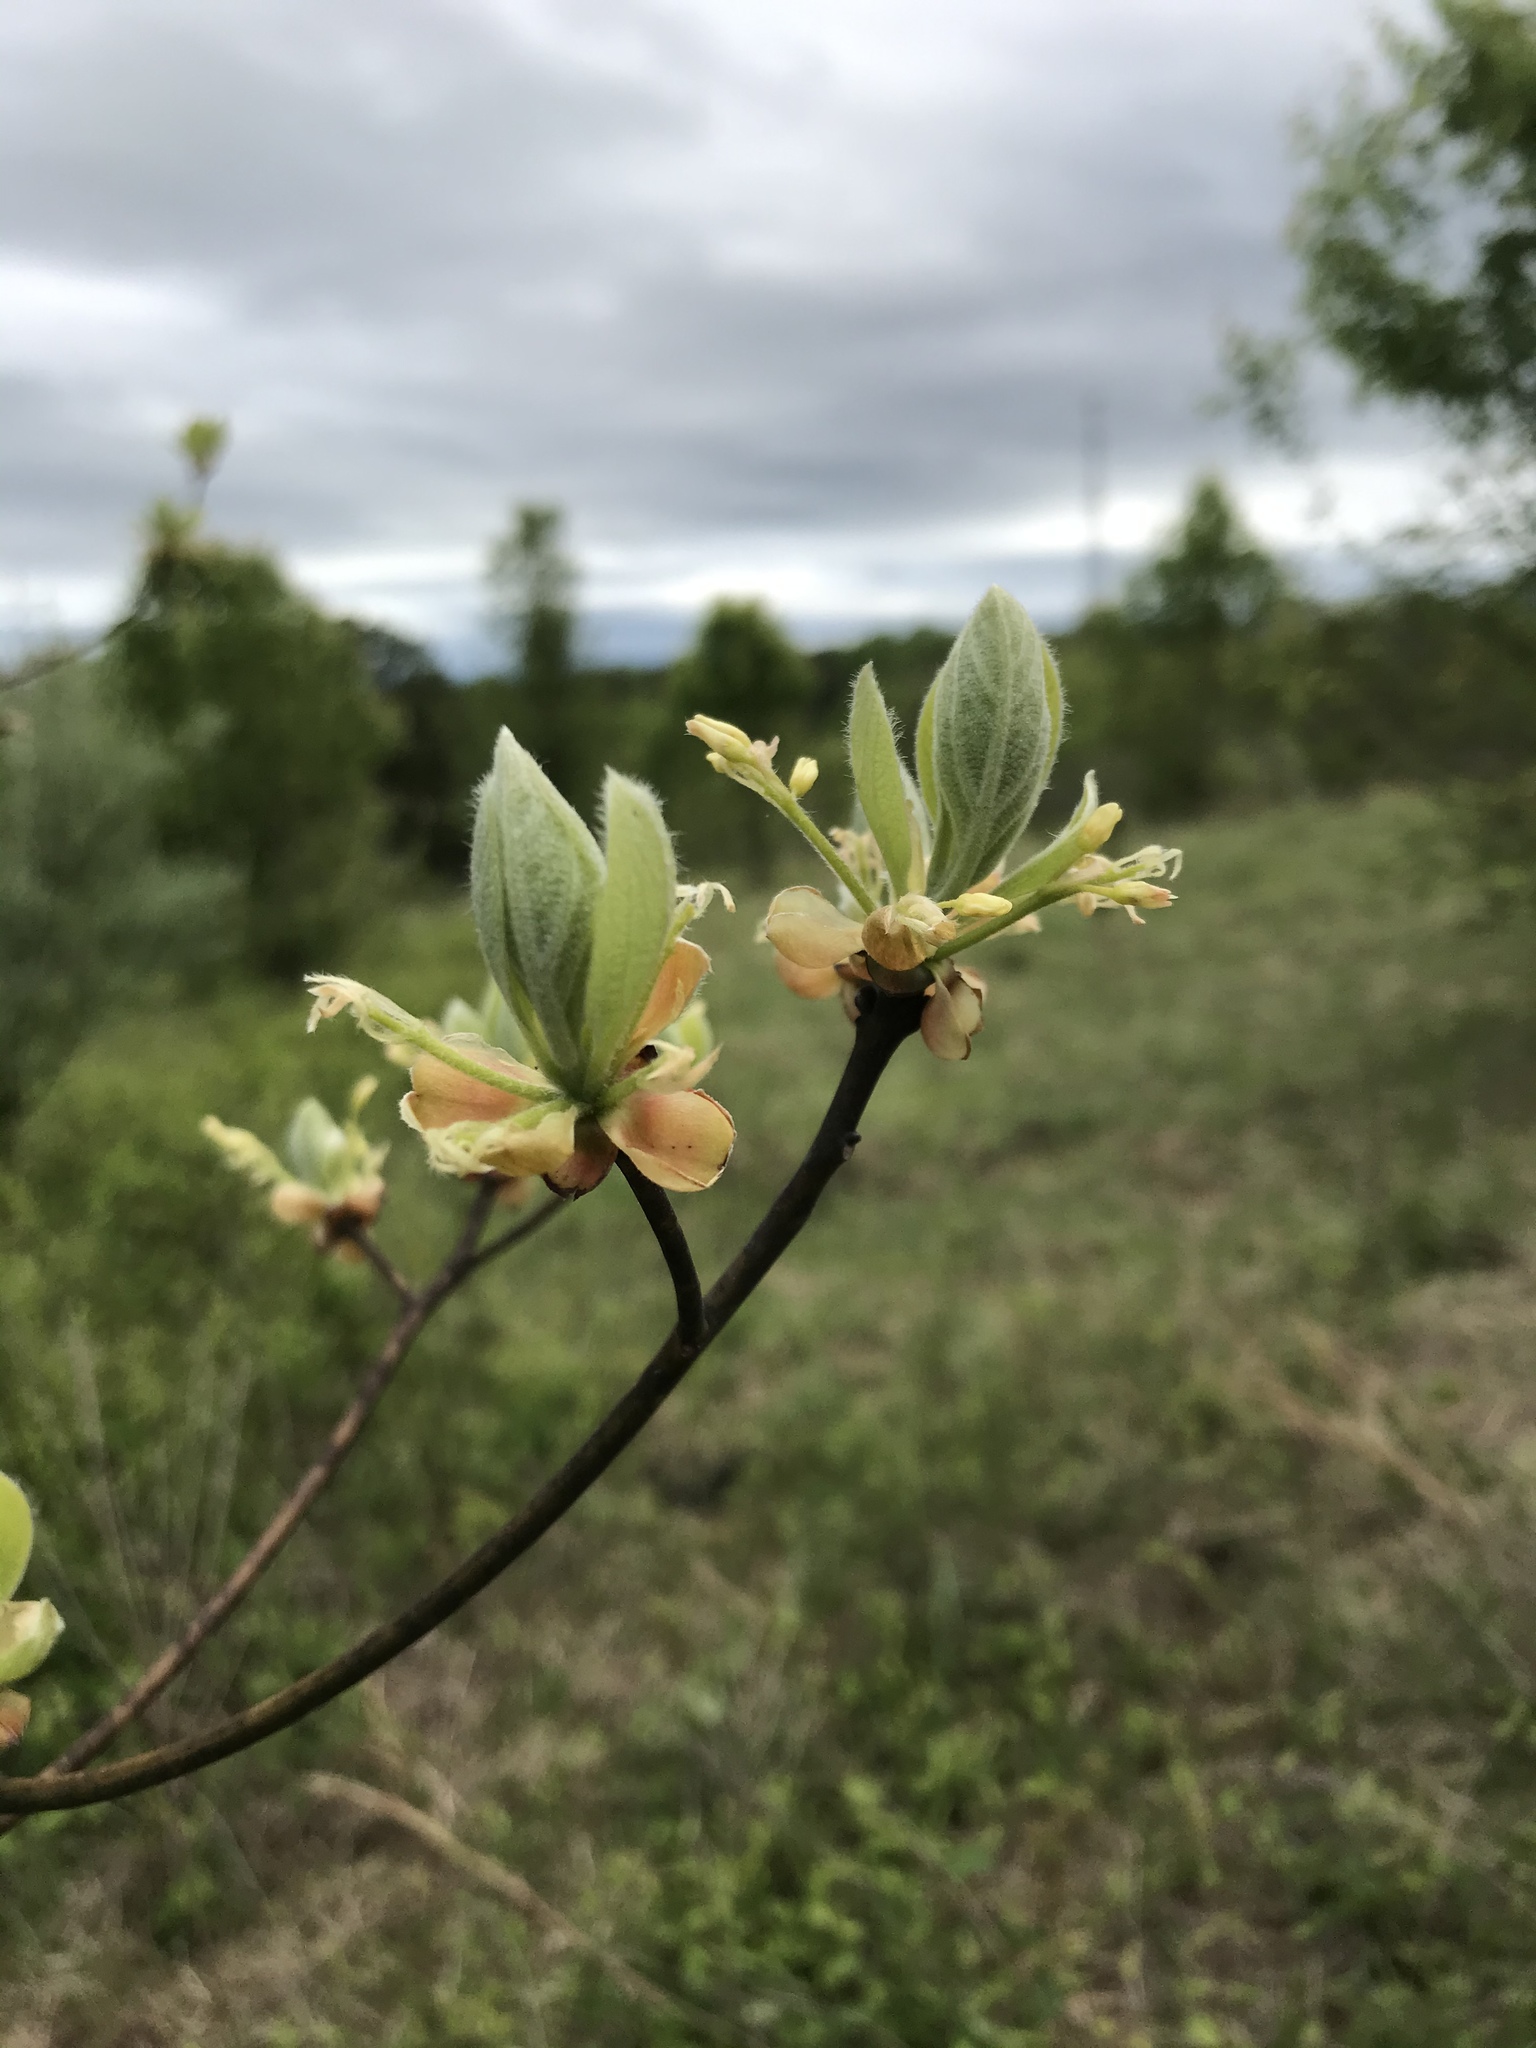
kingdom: Plantae
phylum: Tracheophyta
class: Magnoliopsida
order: Laurales
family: Lauraceae
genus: Sassafras
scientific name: Sassafras albidum
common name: Sassafras
